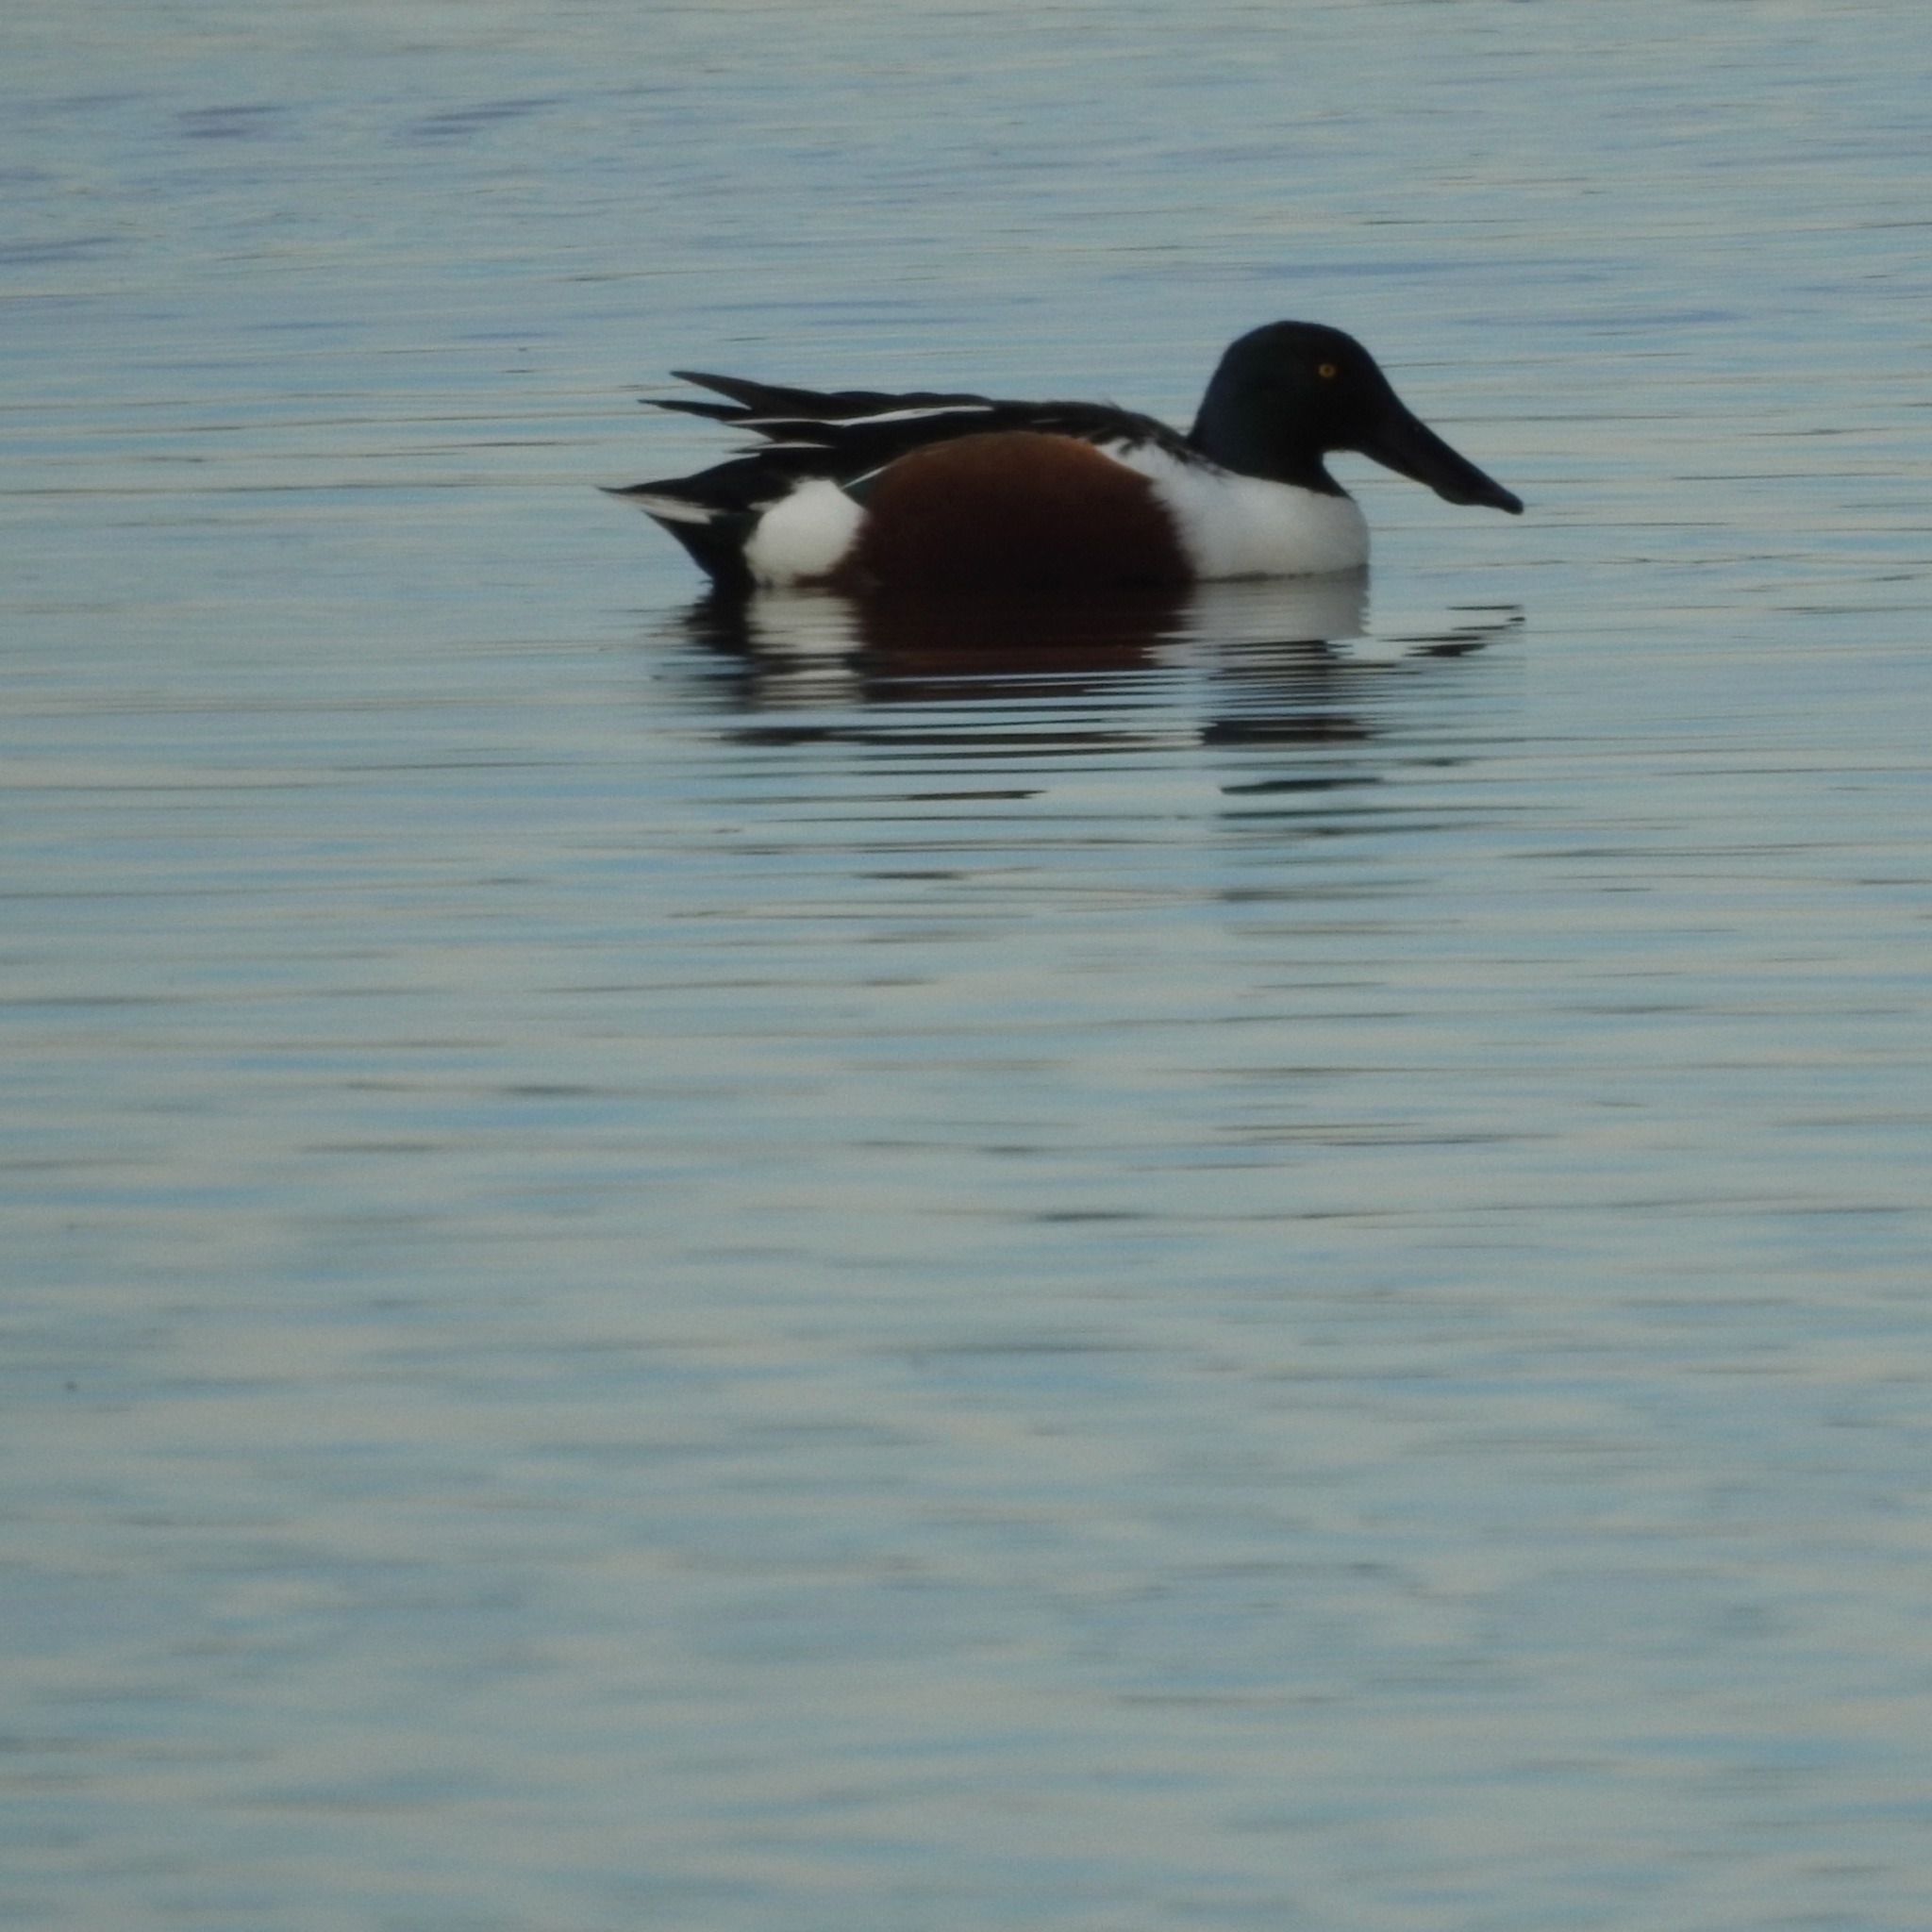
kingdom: Animalia
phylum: Chordata
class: Aves
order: Anseriformes
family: Anatidae
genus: Spatula
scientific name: Spatula clypeata
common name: Northern shoveler
